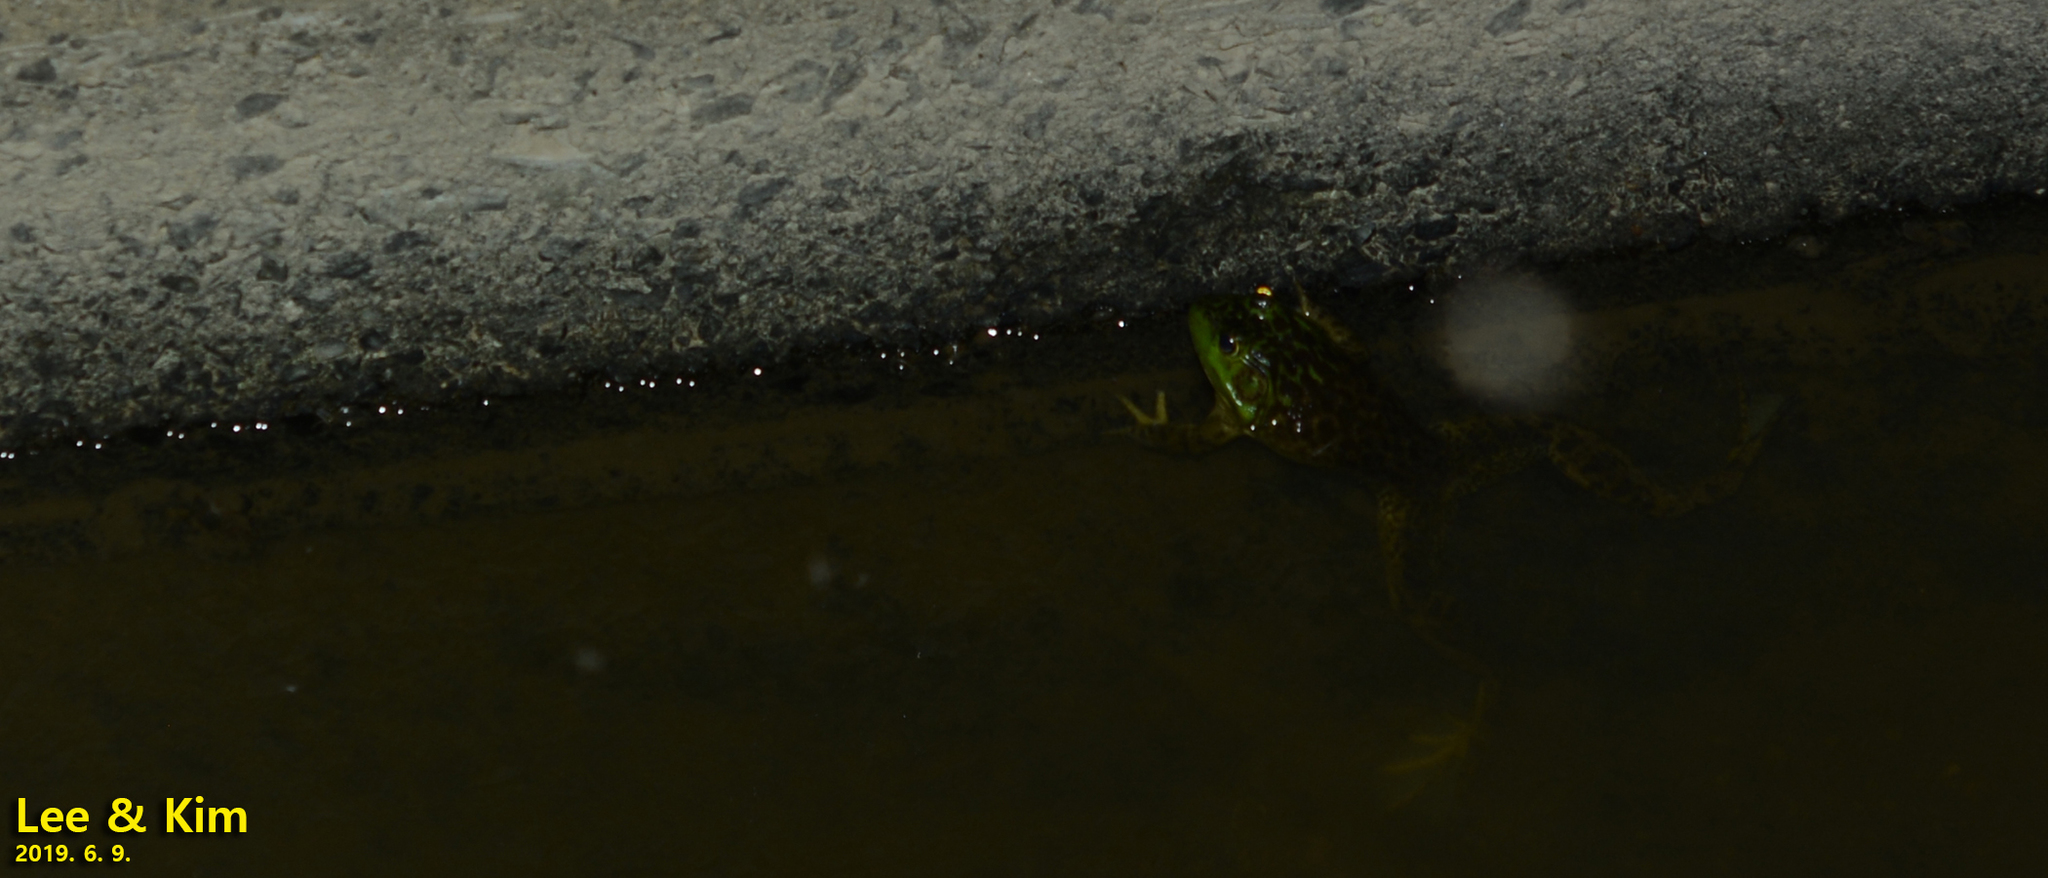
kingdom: Animalia
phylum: Chordata
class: Amphibia
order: Anura
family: Ranidae
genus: Lithobates
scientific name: Lithobates catesbeianus
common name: American bullfrog
